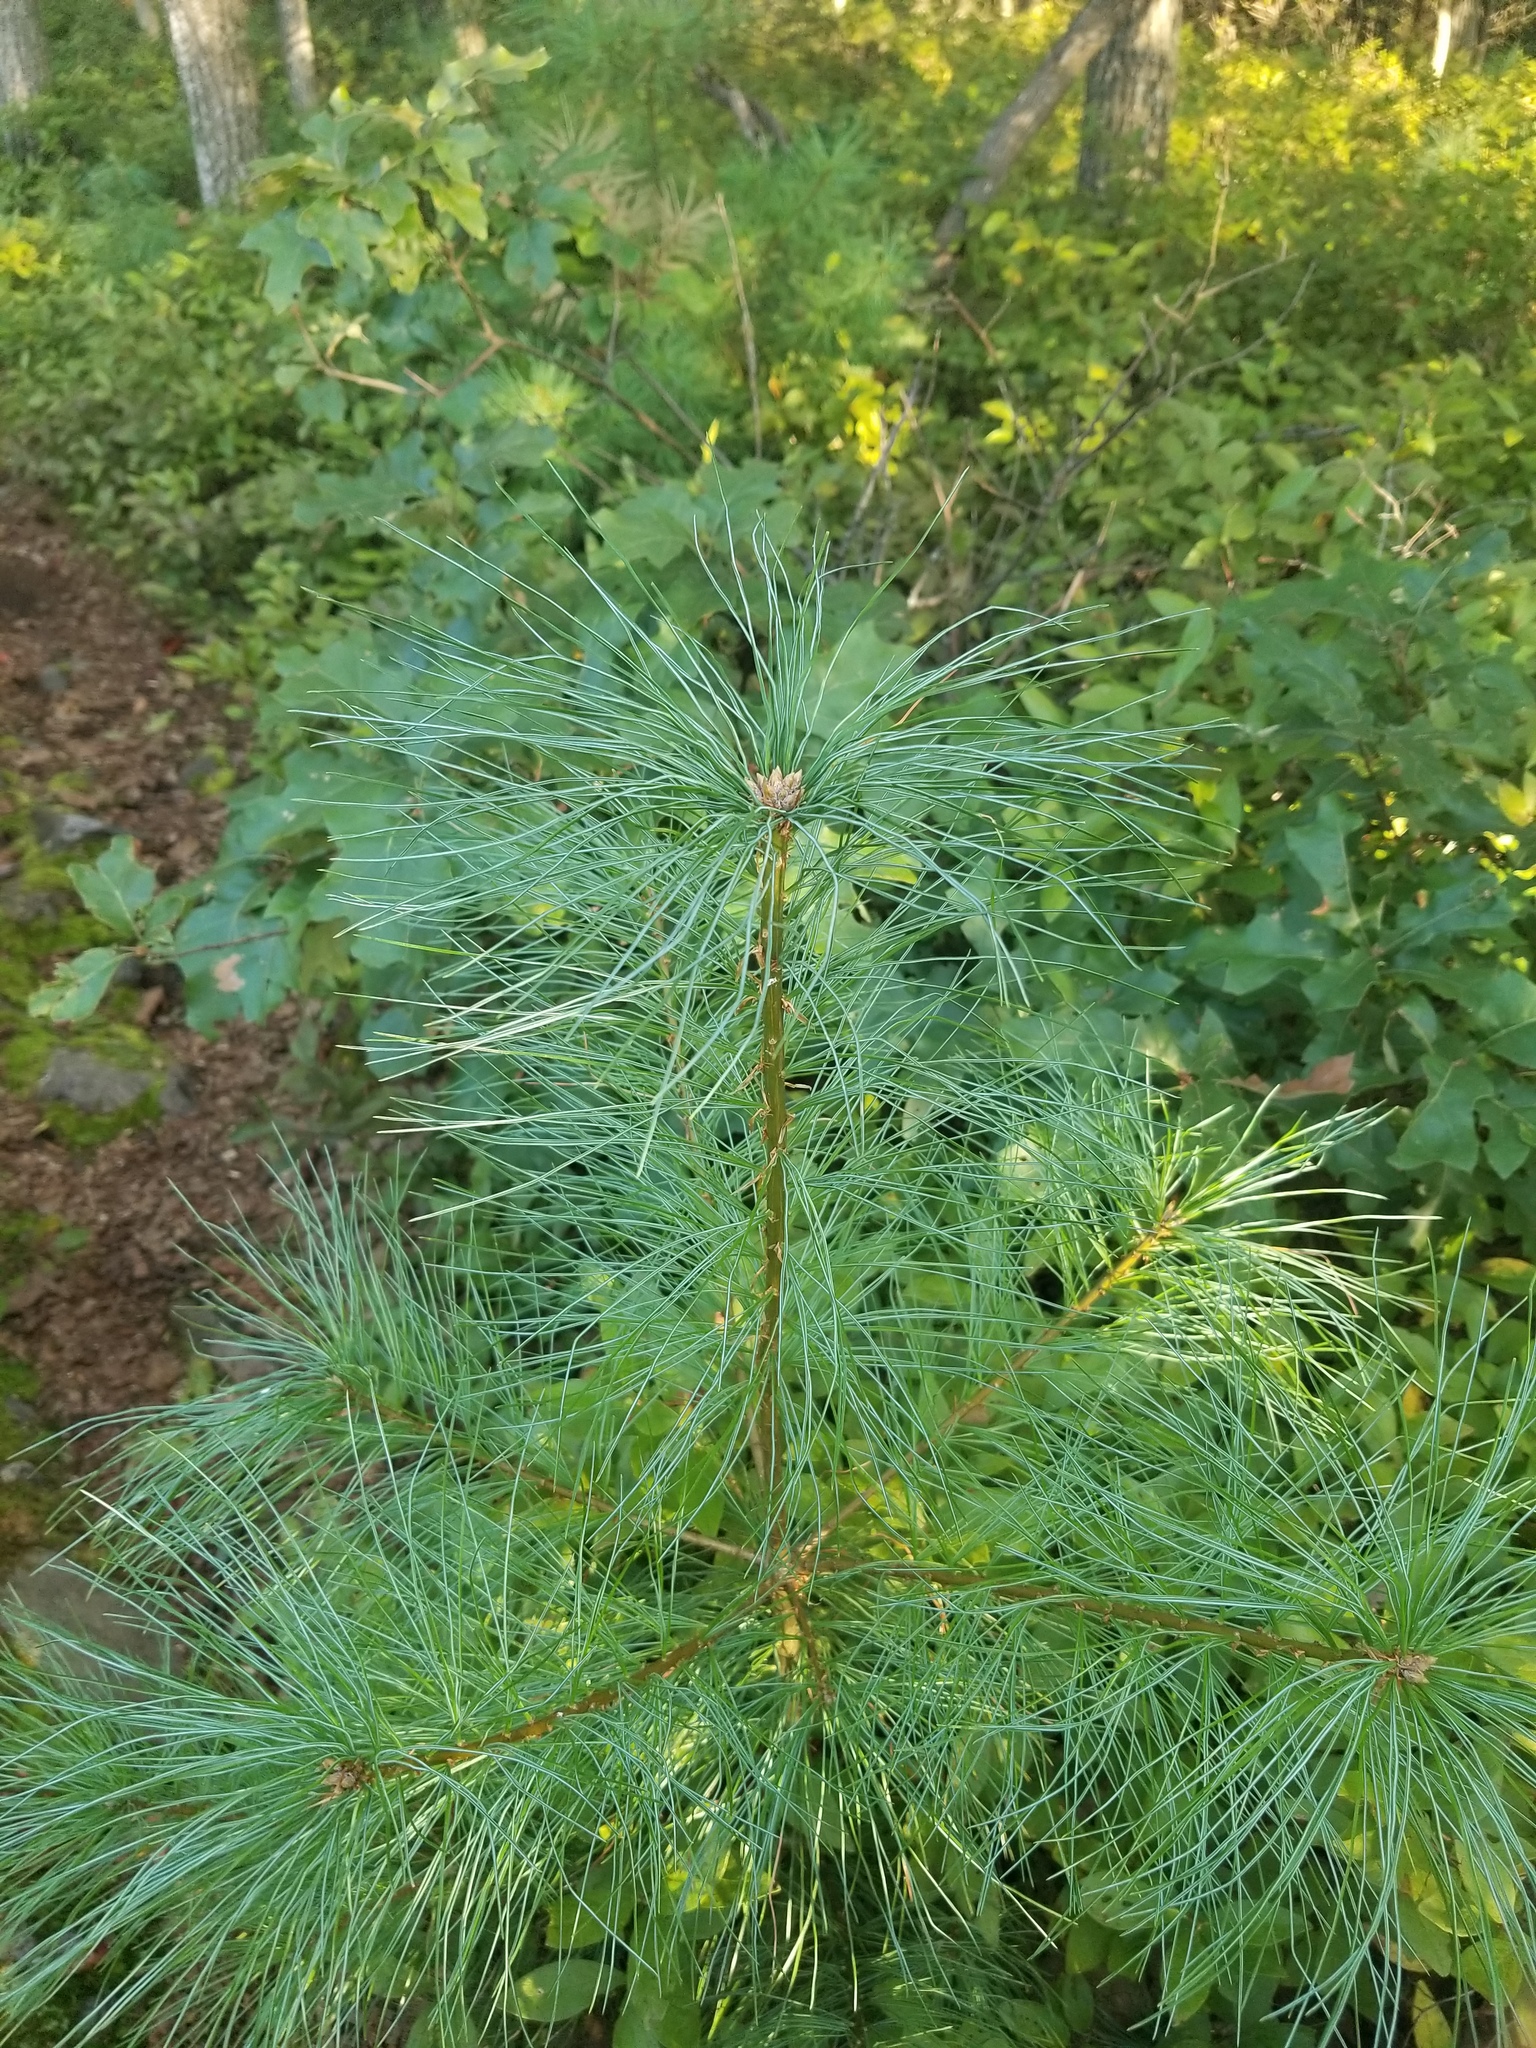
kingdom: Plantae
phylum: Tracheophyta
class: Pinopsida
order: Pinales
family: Pinaceae
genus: Pinus
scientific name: Pinus strobus
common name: Weymouth pine
